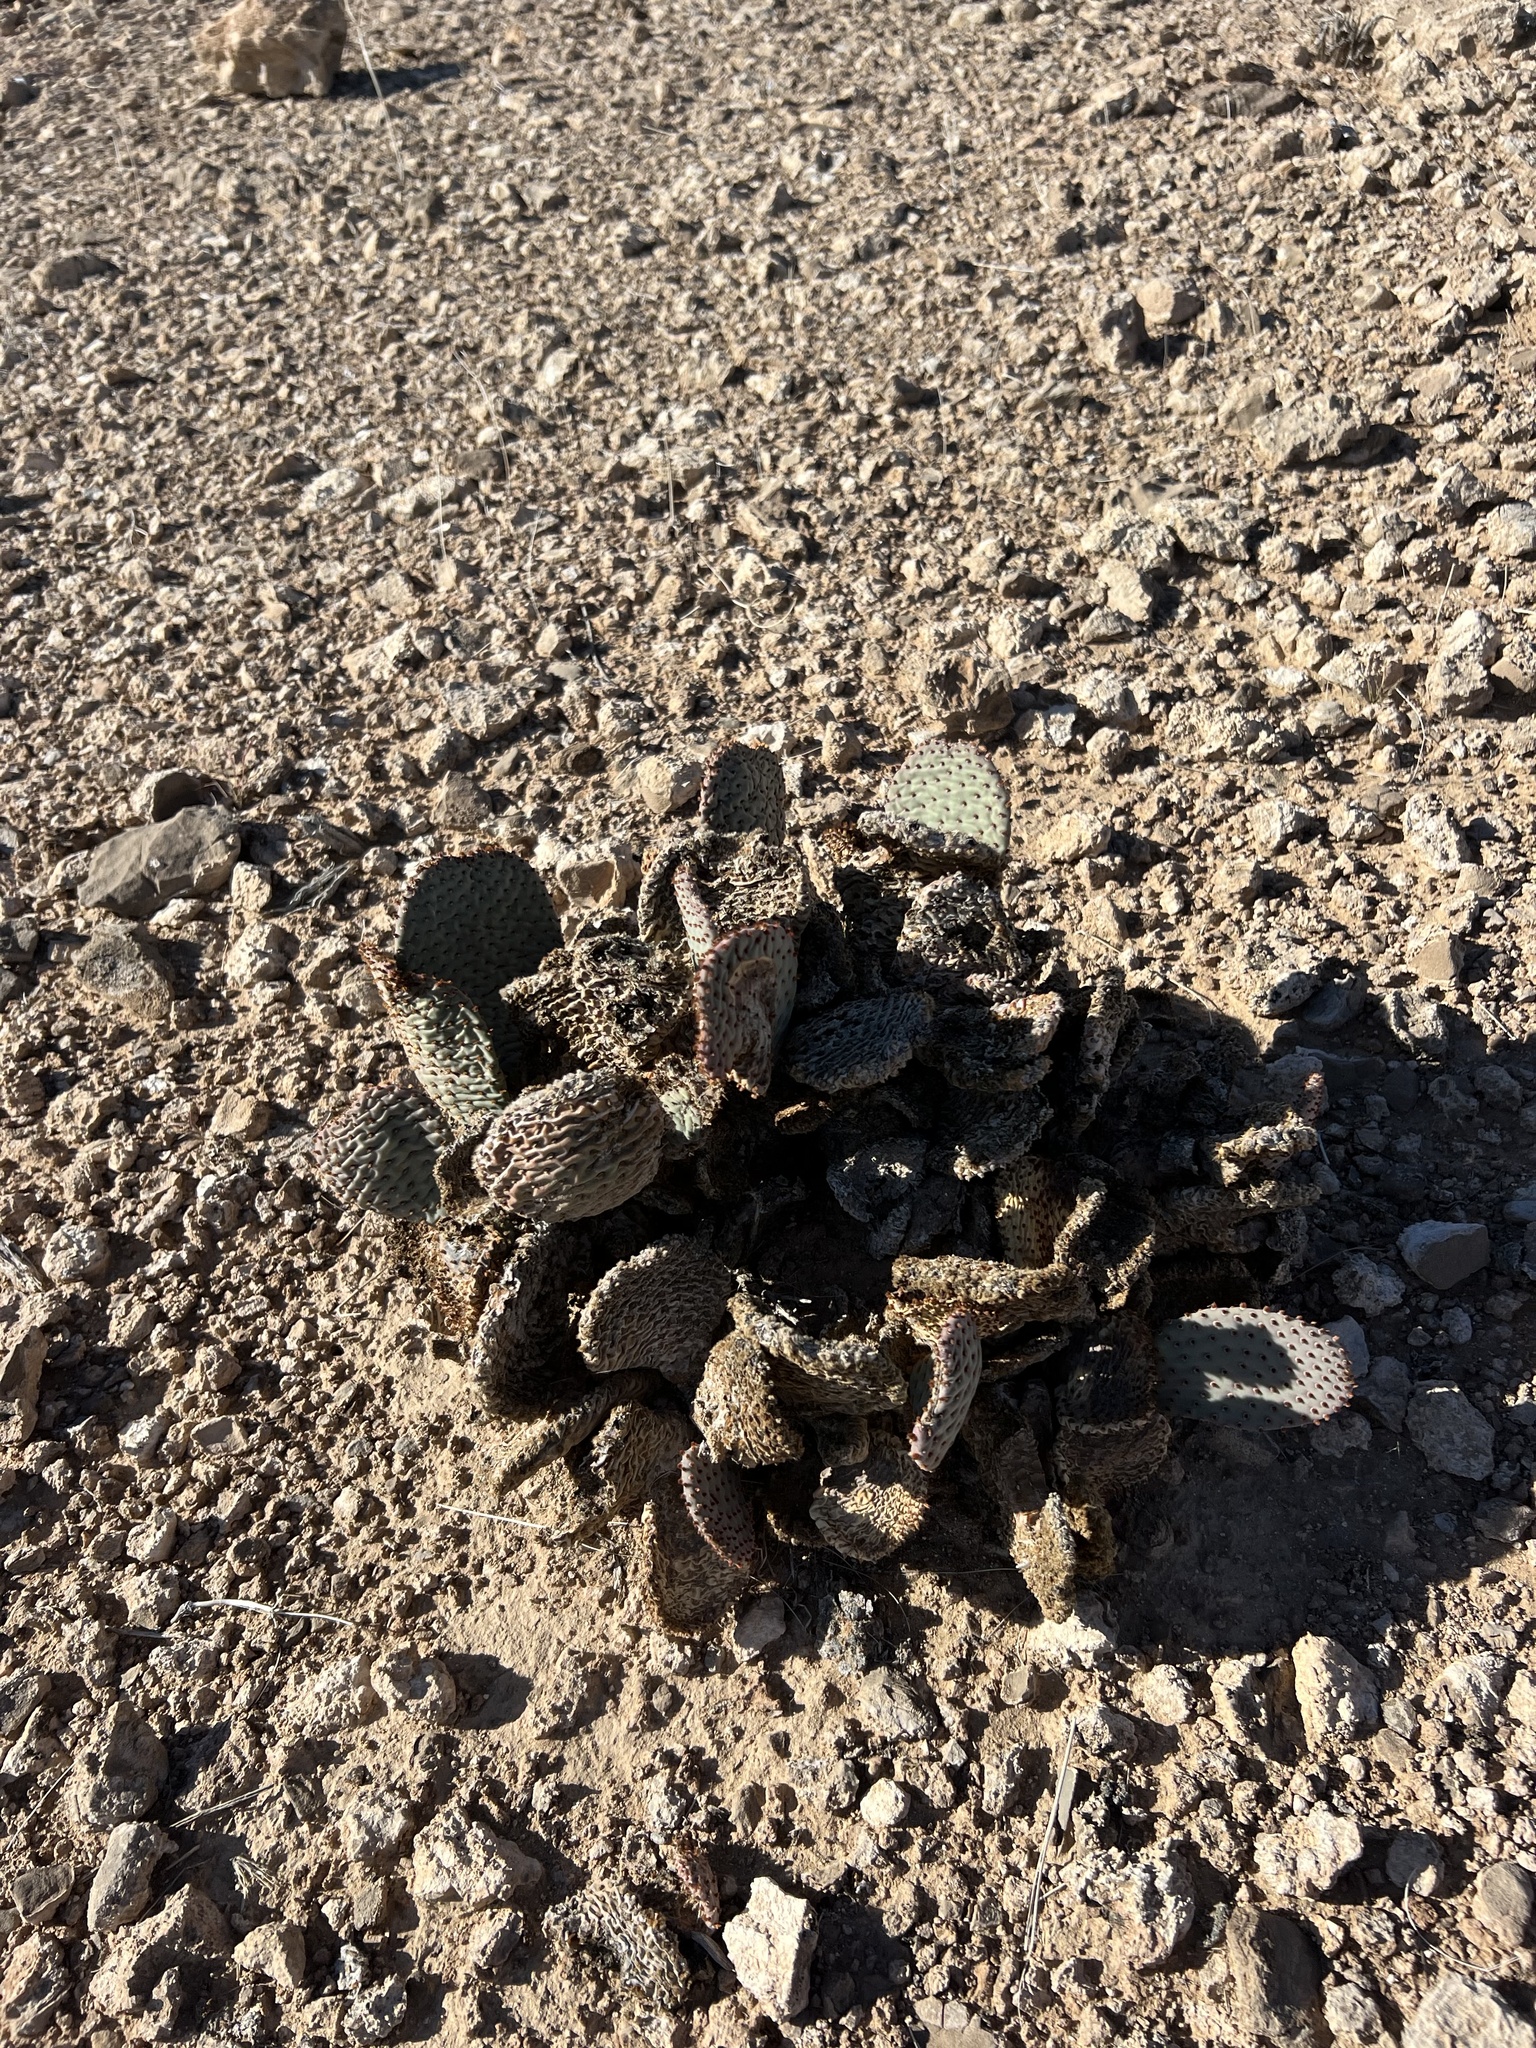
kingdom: Plantae
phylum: Tracheophyta
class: Magnoliopsida
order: Caryophyllales
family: Cactaceae
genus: Opuntia
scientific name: Opuntia basilaris
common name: Beavertail prickly-pear
